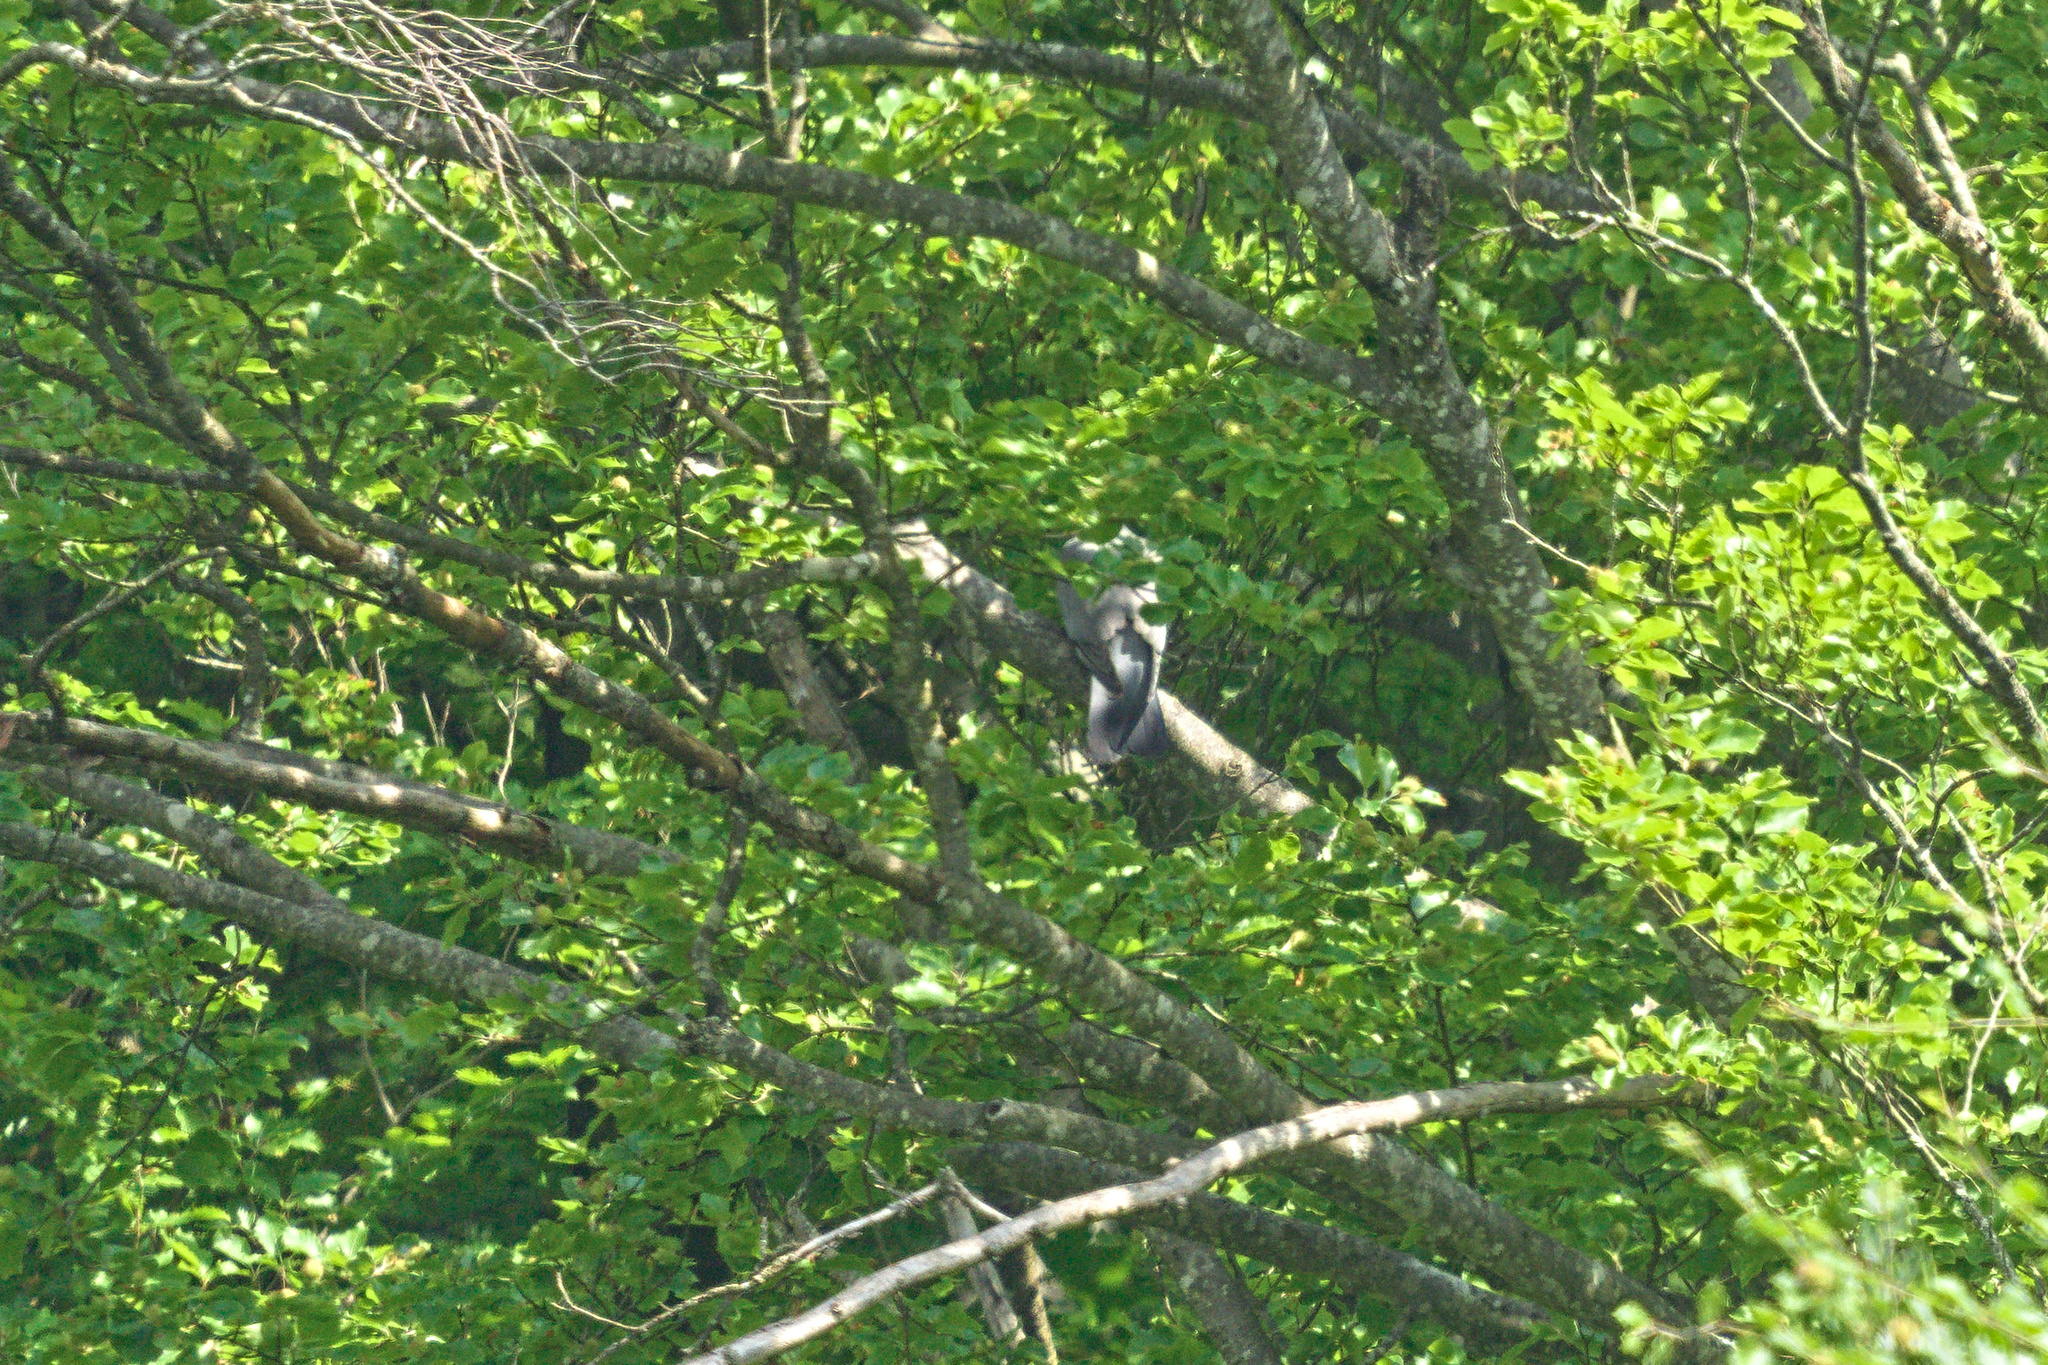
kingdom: Animalia
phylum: Chordata
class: Aves
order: Columbiformes
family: Columbidae
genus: Columba
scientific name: Columba palumbus
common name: Common wood pigeon
